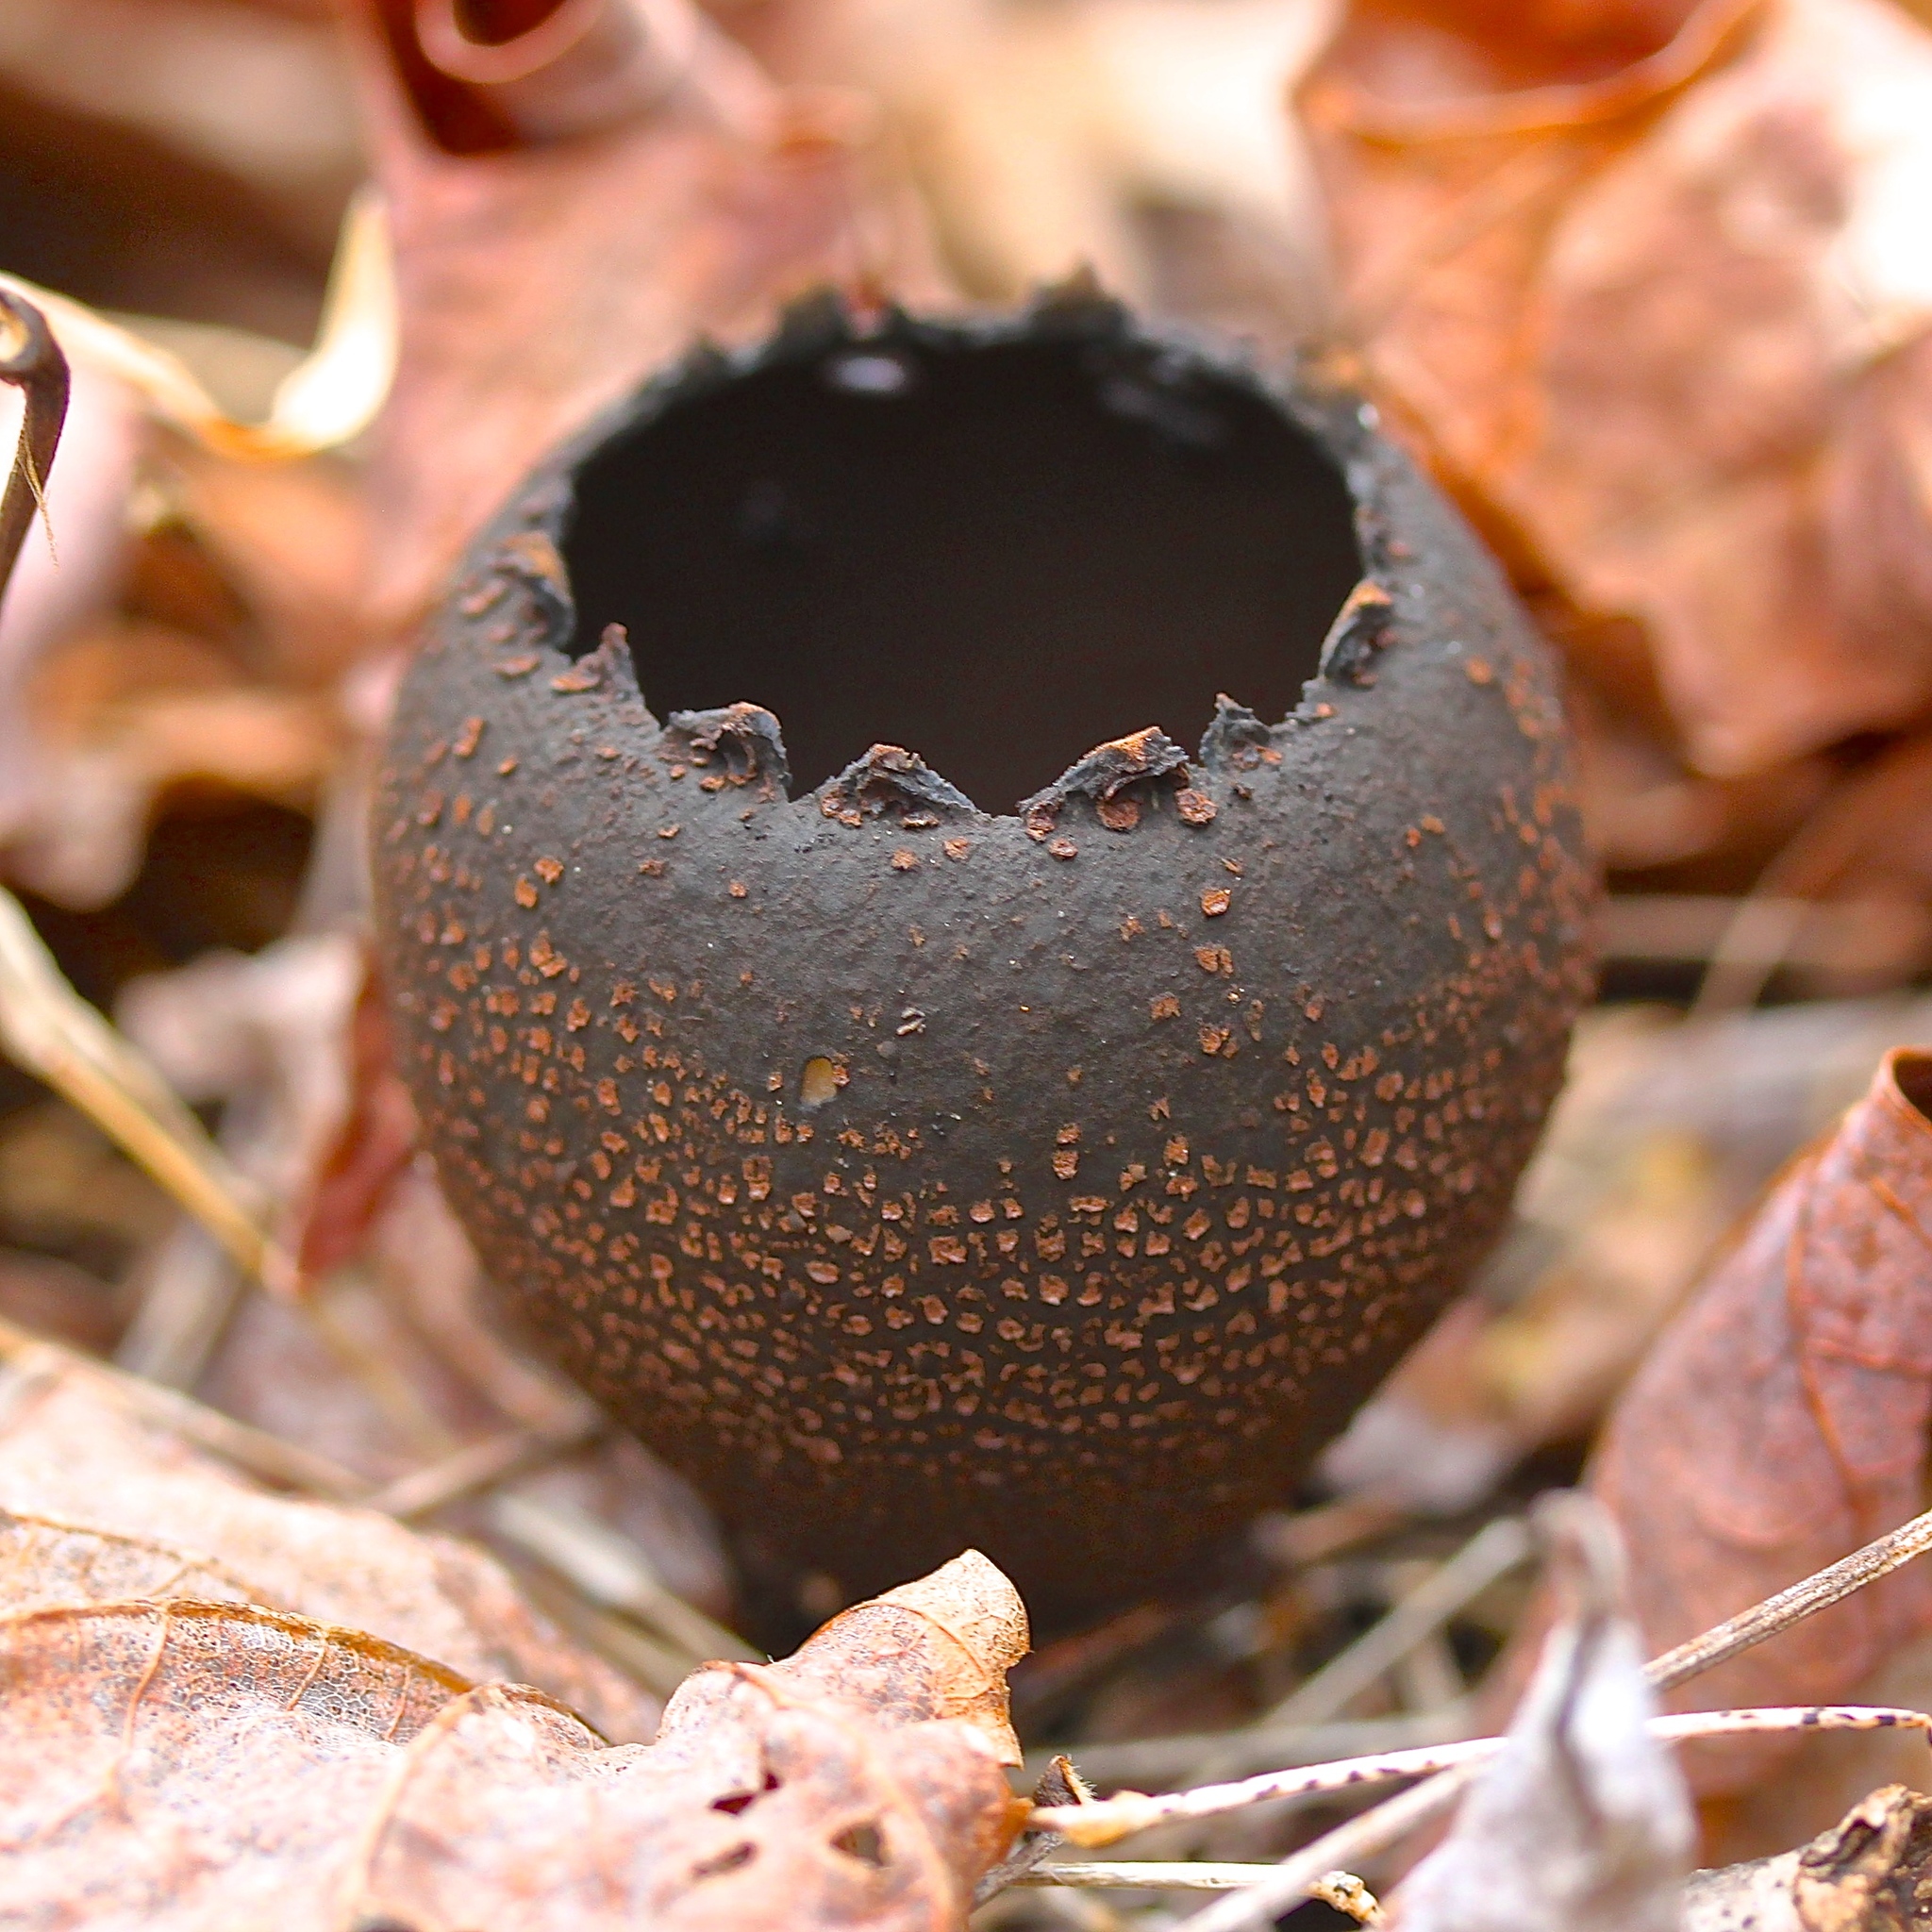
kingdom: Fungi
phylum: Ascomycota
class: Pezizomycetes
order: Pezizales
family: Sarcosomataceae
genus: Urnula
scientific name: Urnula craterium
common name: Devil's urn
